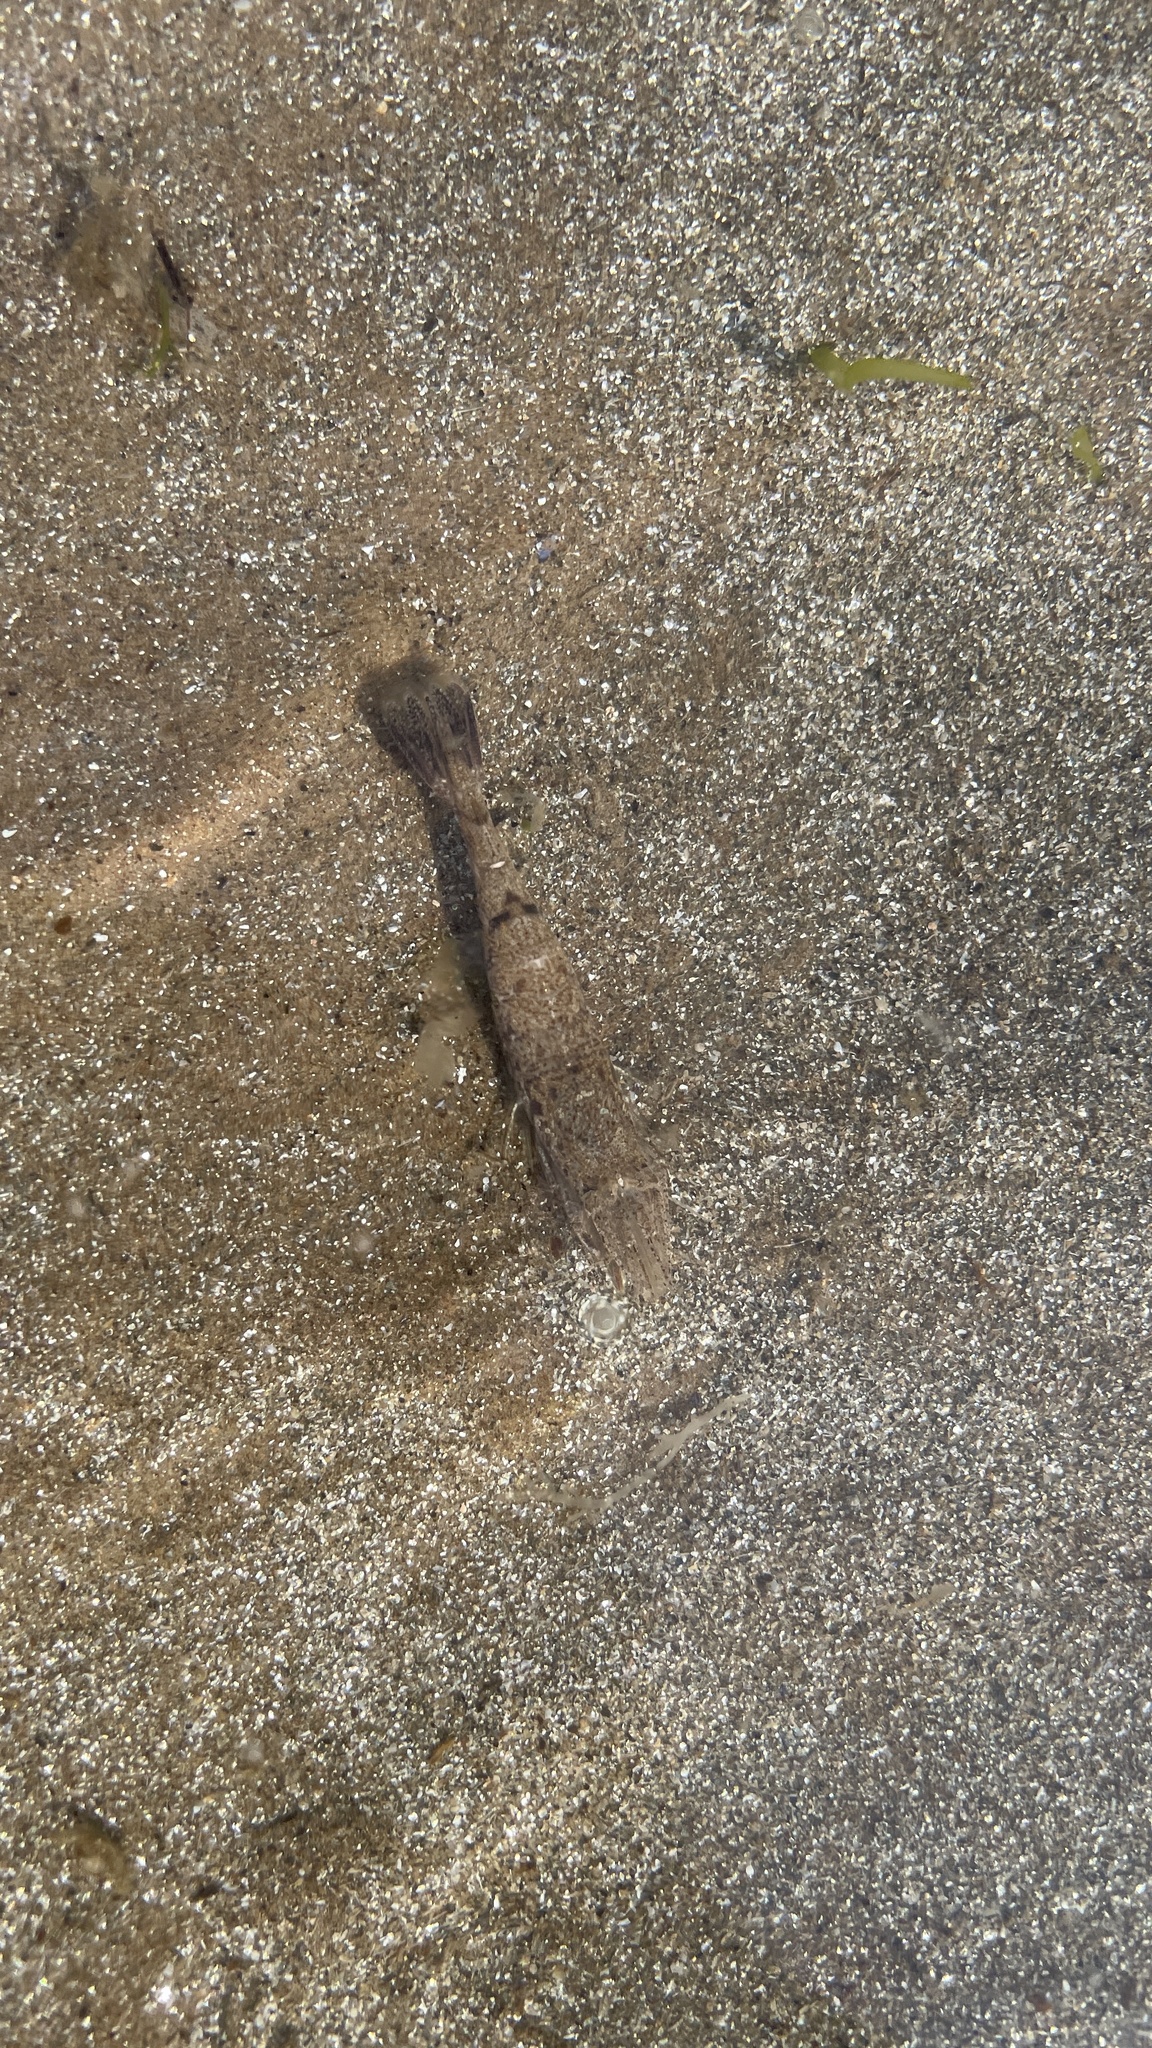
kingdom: Animalia
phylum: Arthropoda
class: Malacostraca
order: Decapoda
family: Crangonidae
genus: Crangon
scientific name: Crangon crangon
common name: Brown shrimp
